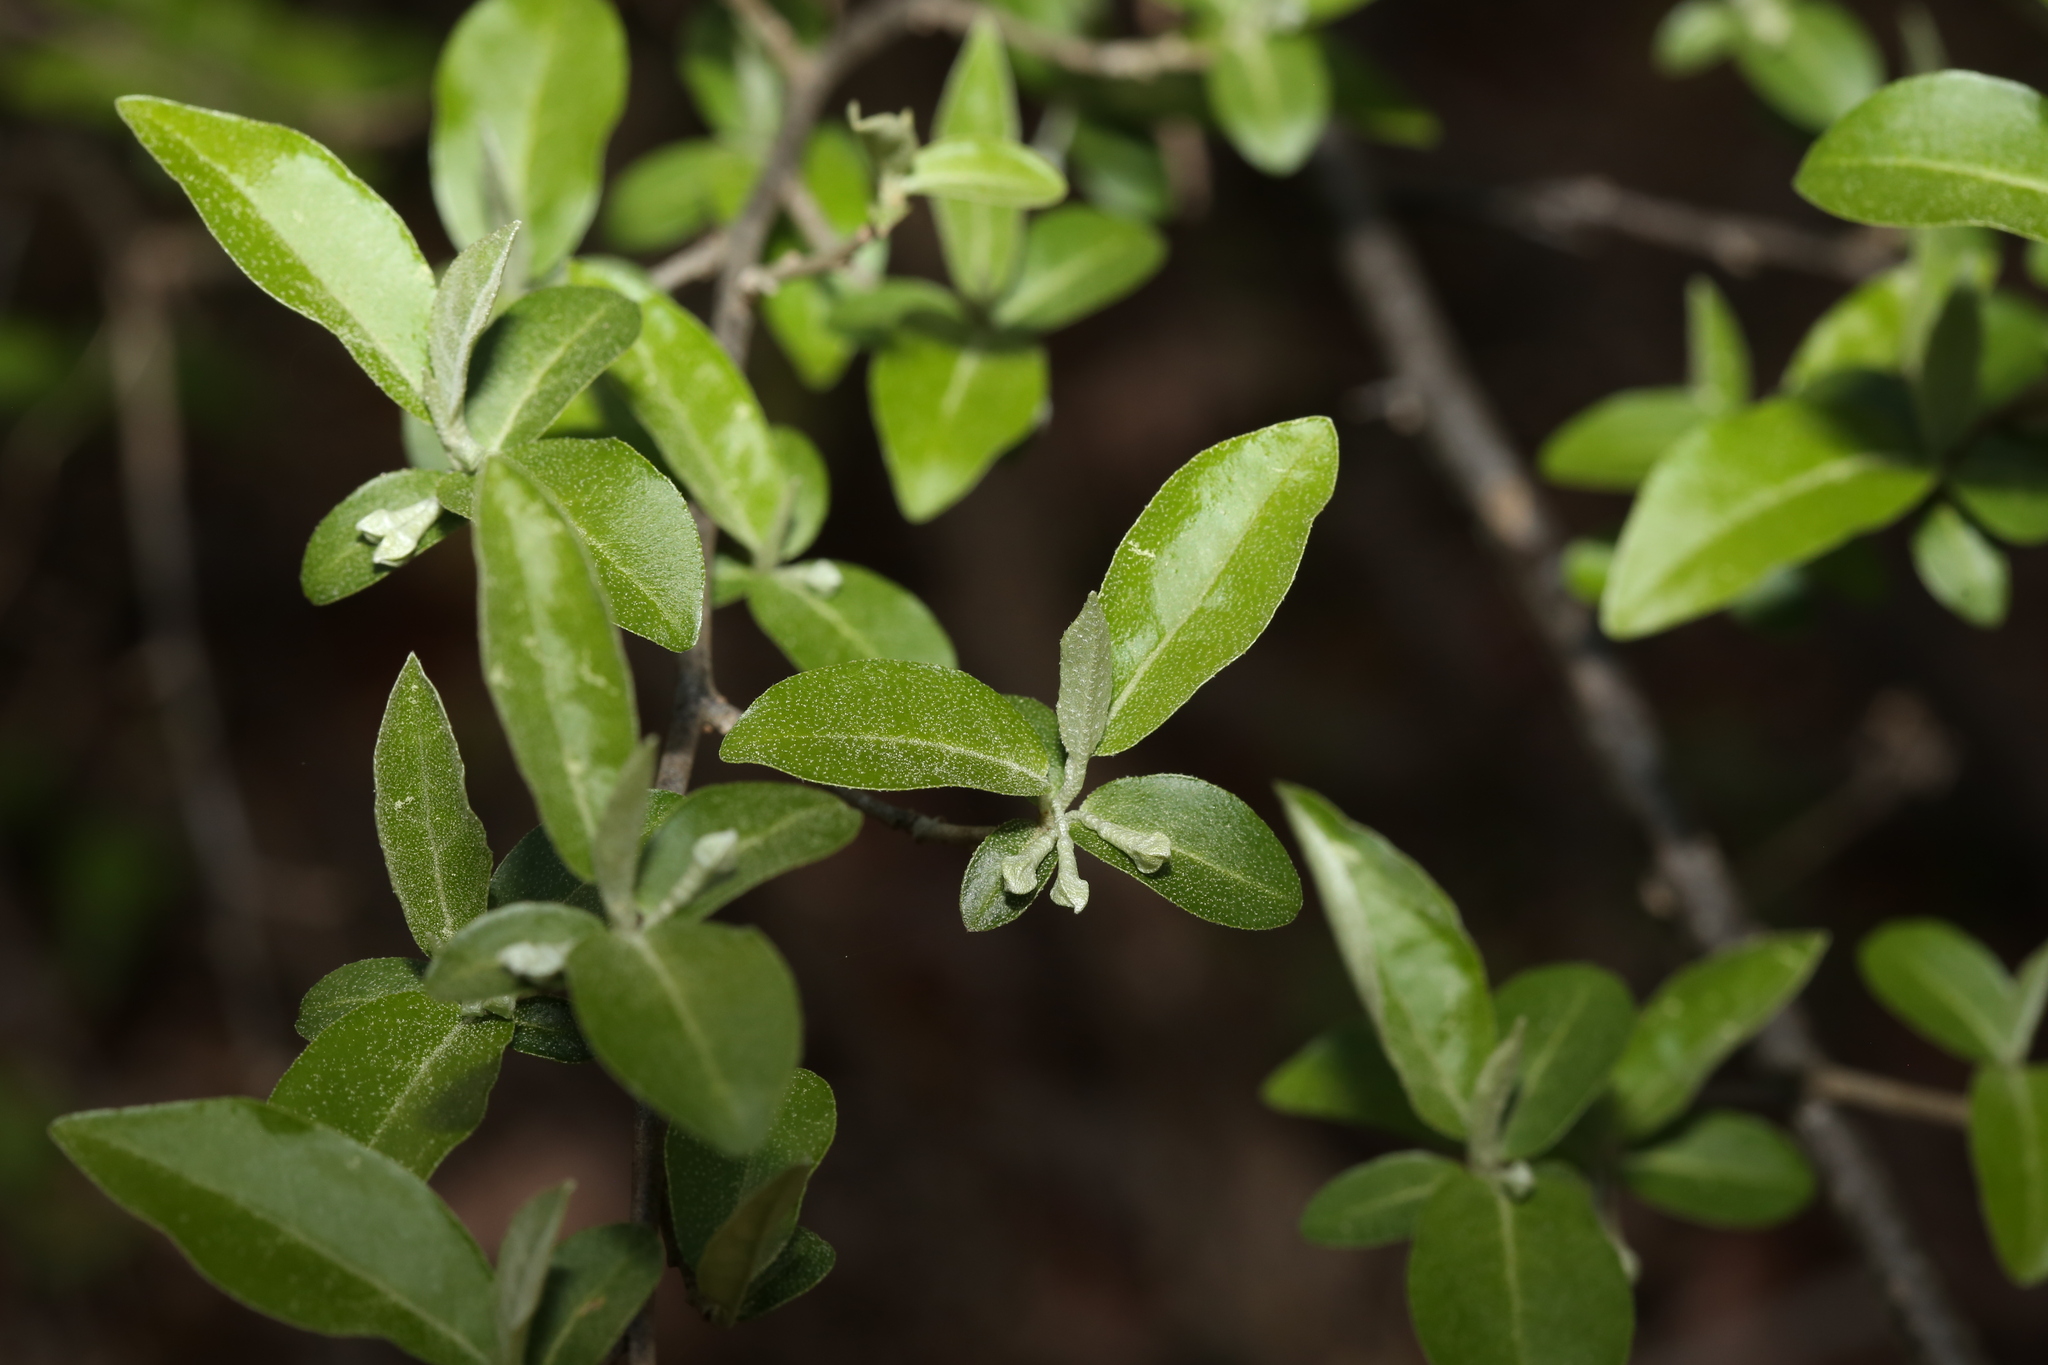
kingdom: Plantae
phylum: Tracheophyta
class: Magnoliopsida
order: Rosales
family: Elaeagnaceae
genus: Elaeagnus
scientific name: Elaeagnus umbellata
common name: Autumn olive
